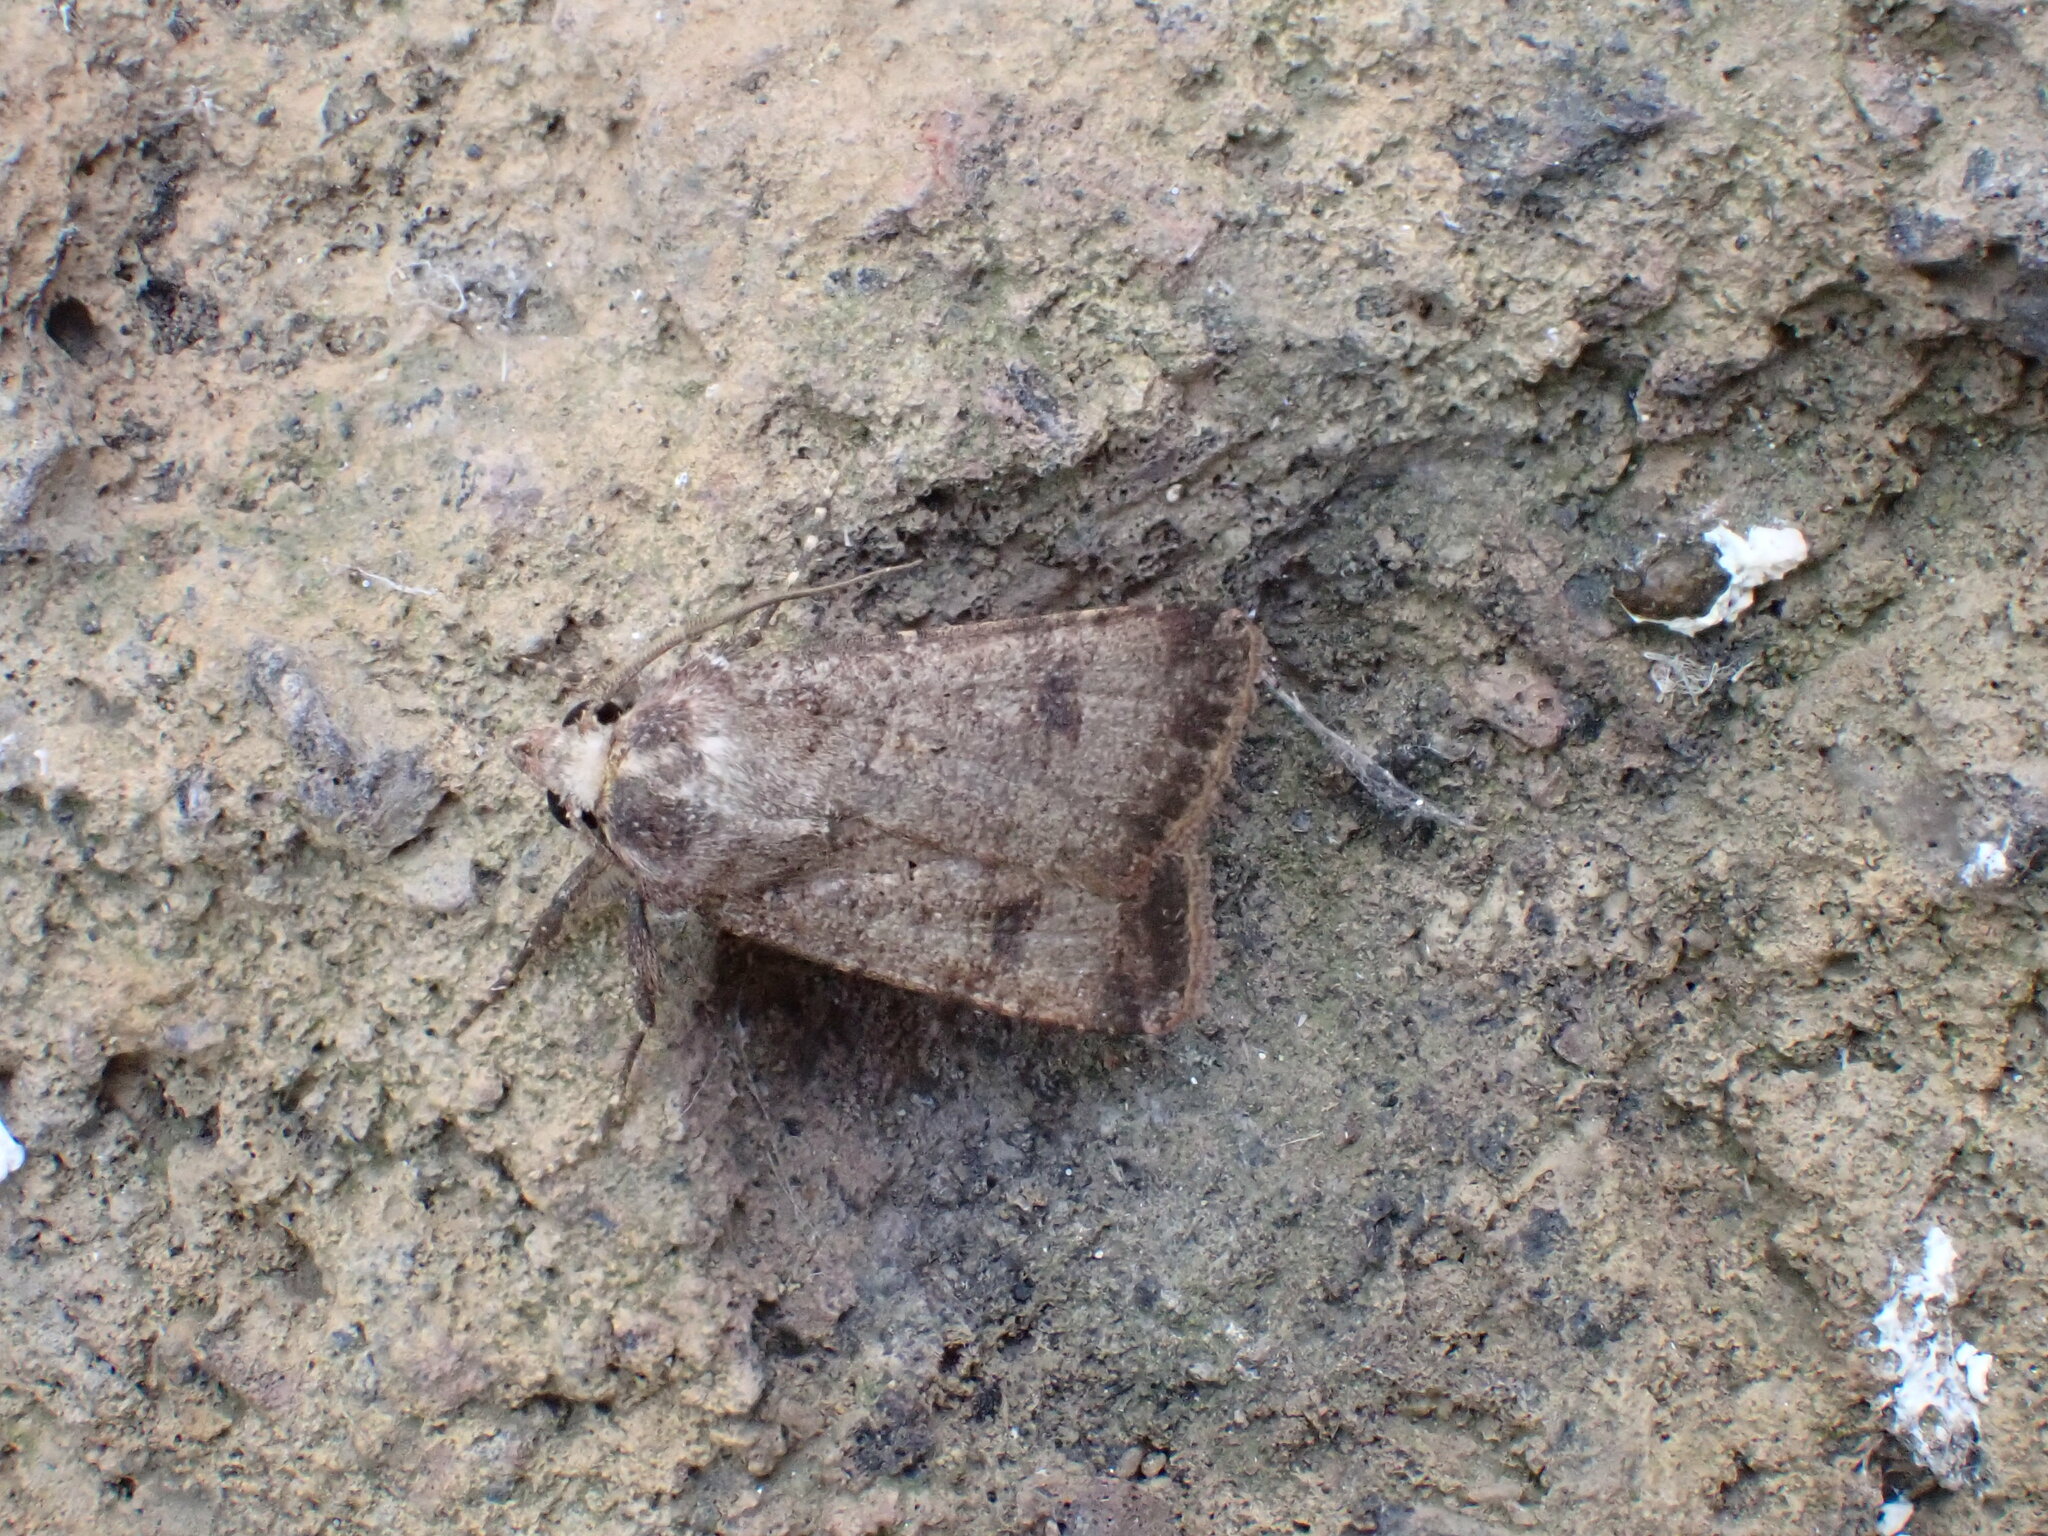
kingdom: Animalia
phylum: Arthropoda
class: Insecta
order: Lepidoptera
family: Noctuidae
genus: Agrotis
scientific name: Agrotis trux
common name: Crescent dart
